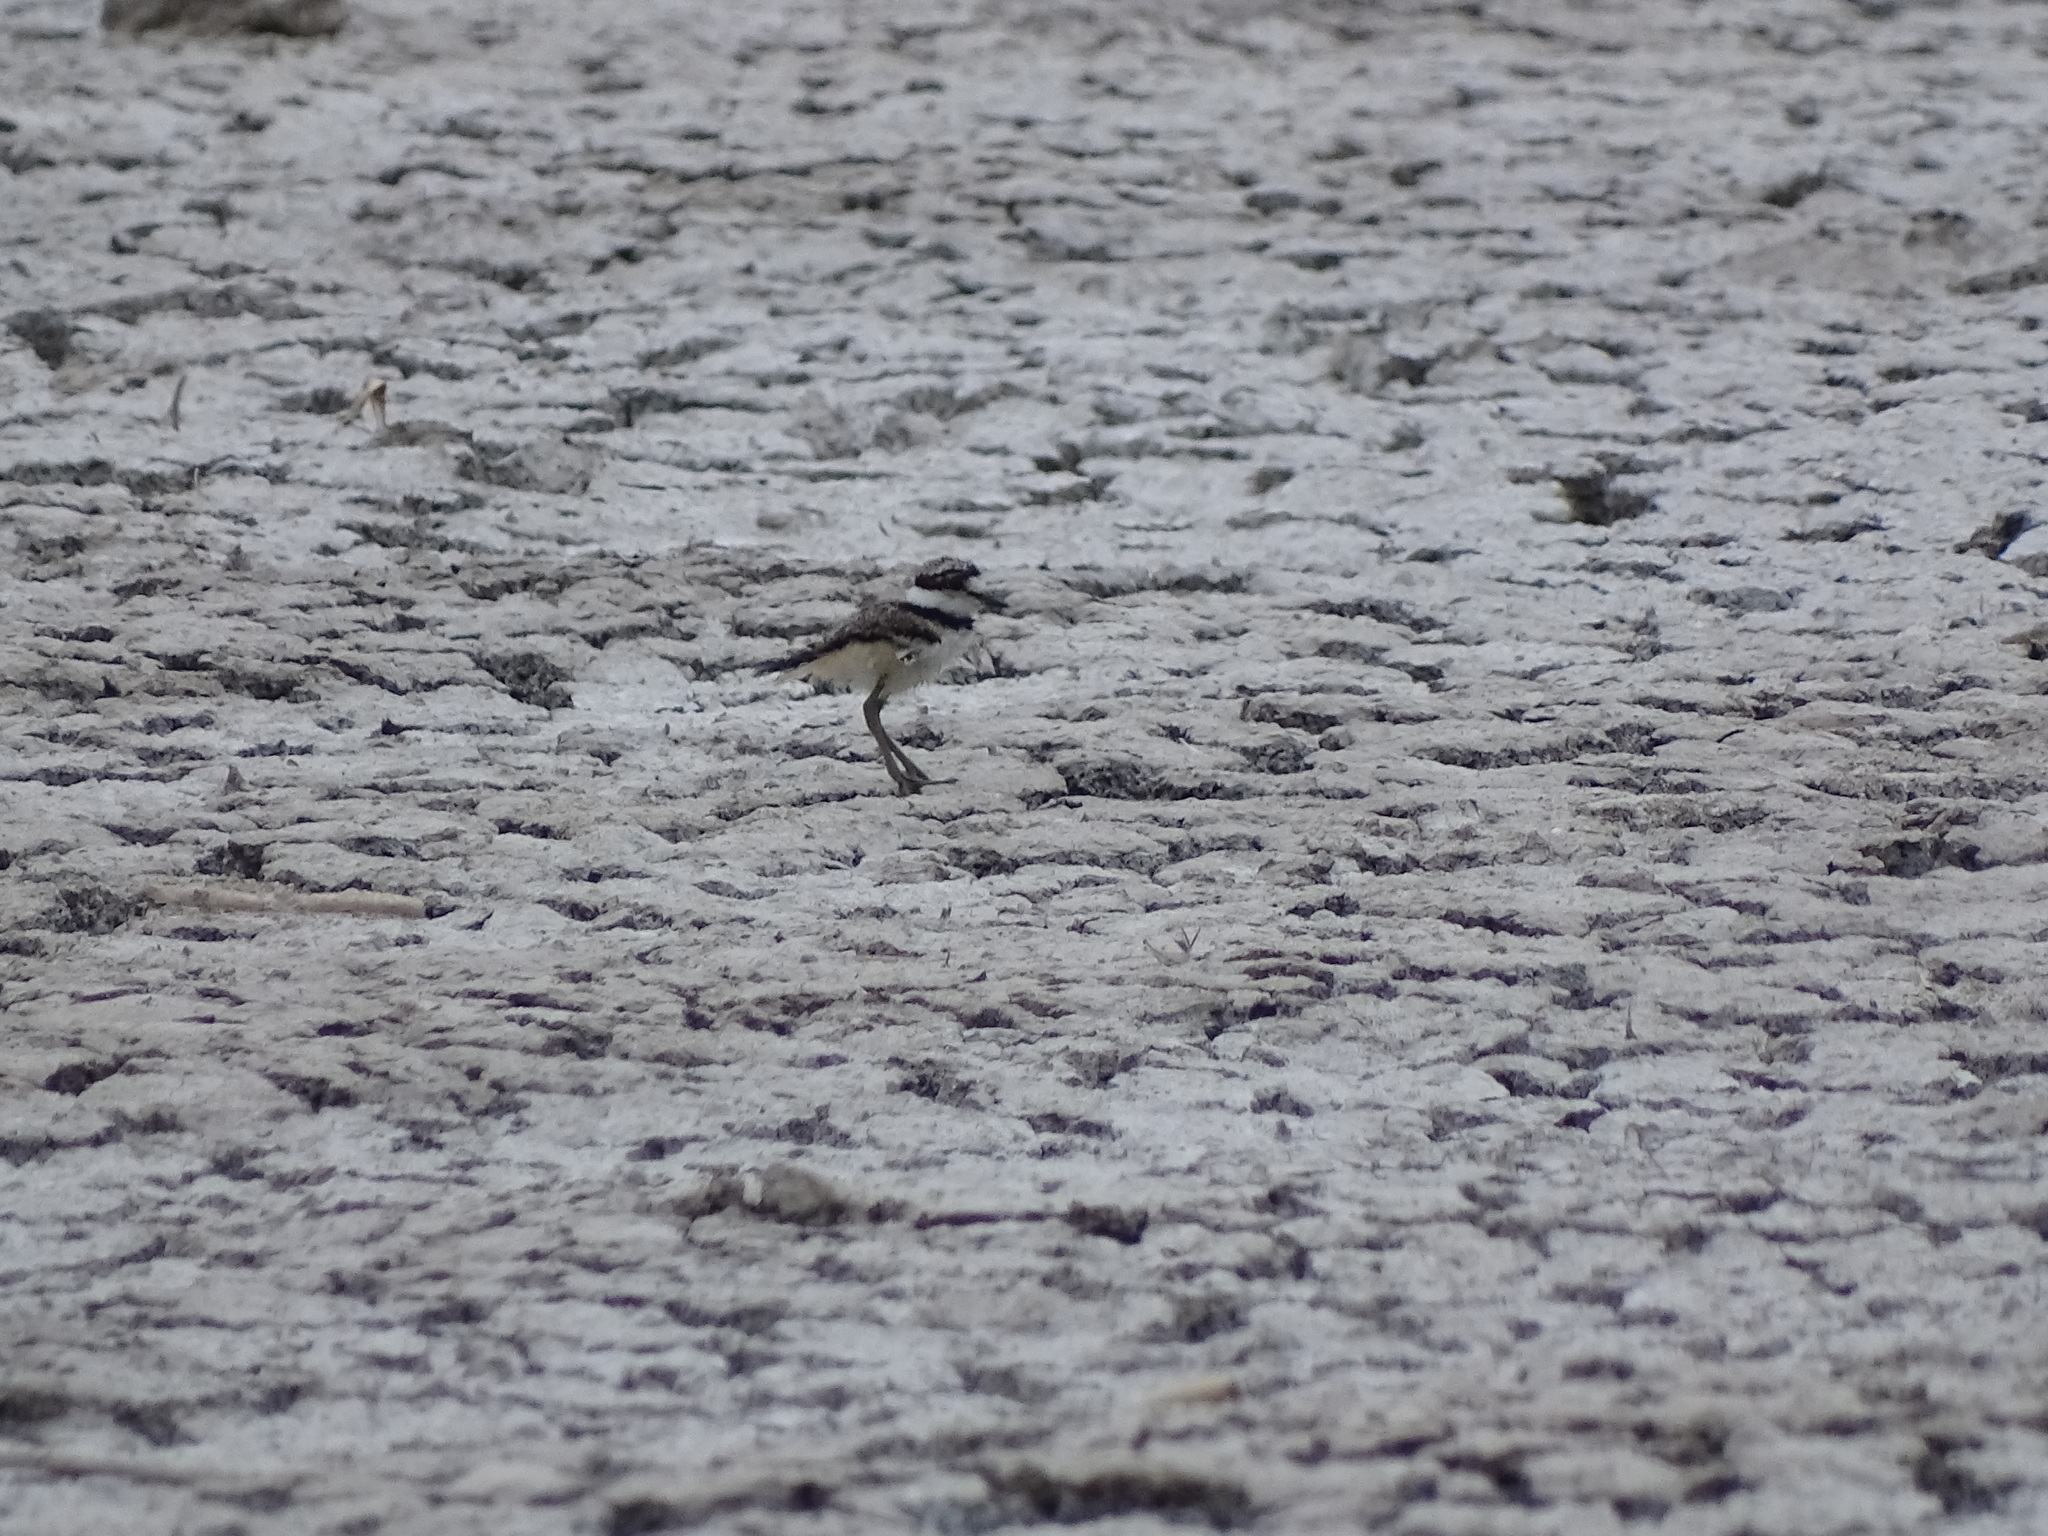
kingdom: Animalia
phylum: Chordata
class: Aves
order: Charadriiformes
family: Charadriidae
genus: Charadrius
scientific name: Charadrius vociferus
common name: Killdeer
